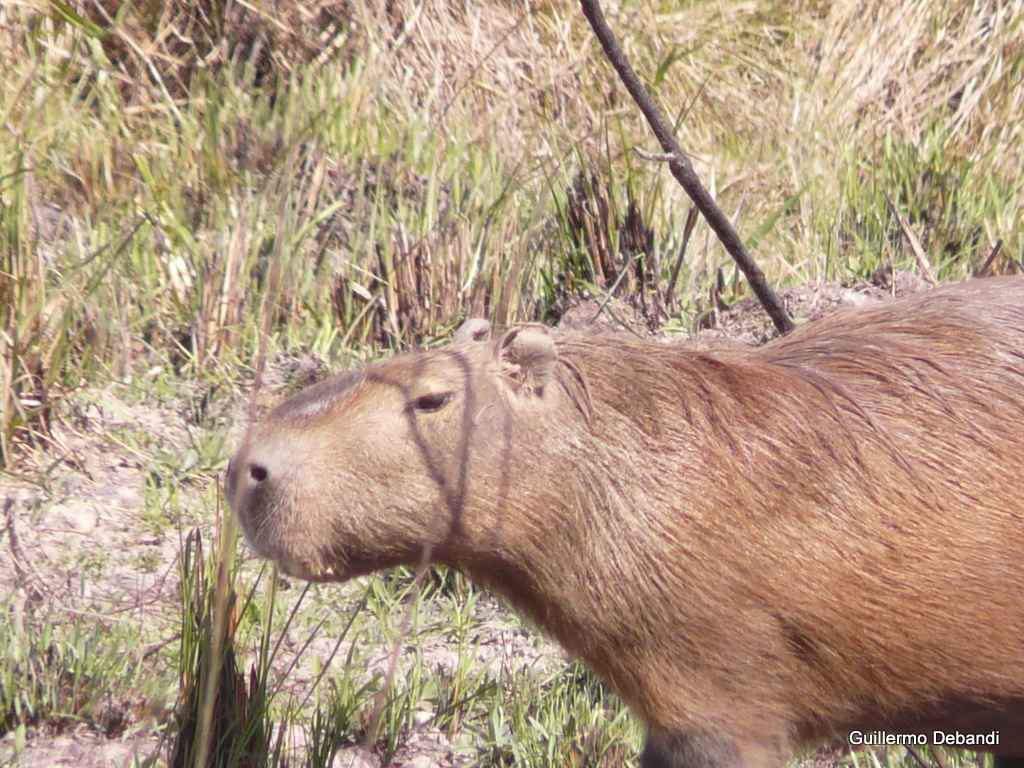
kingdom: Animalia
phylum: Chordata
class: Mammalia
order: Rodentia
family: Caviidae
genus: Hydrochoerus
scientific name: Hydrochoerus hydrochaeris
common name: Capybara
